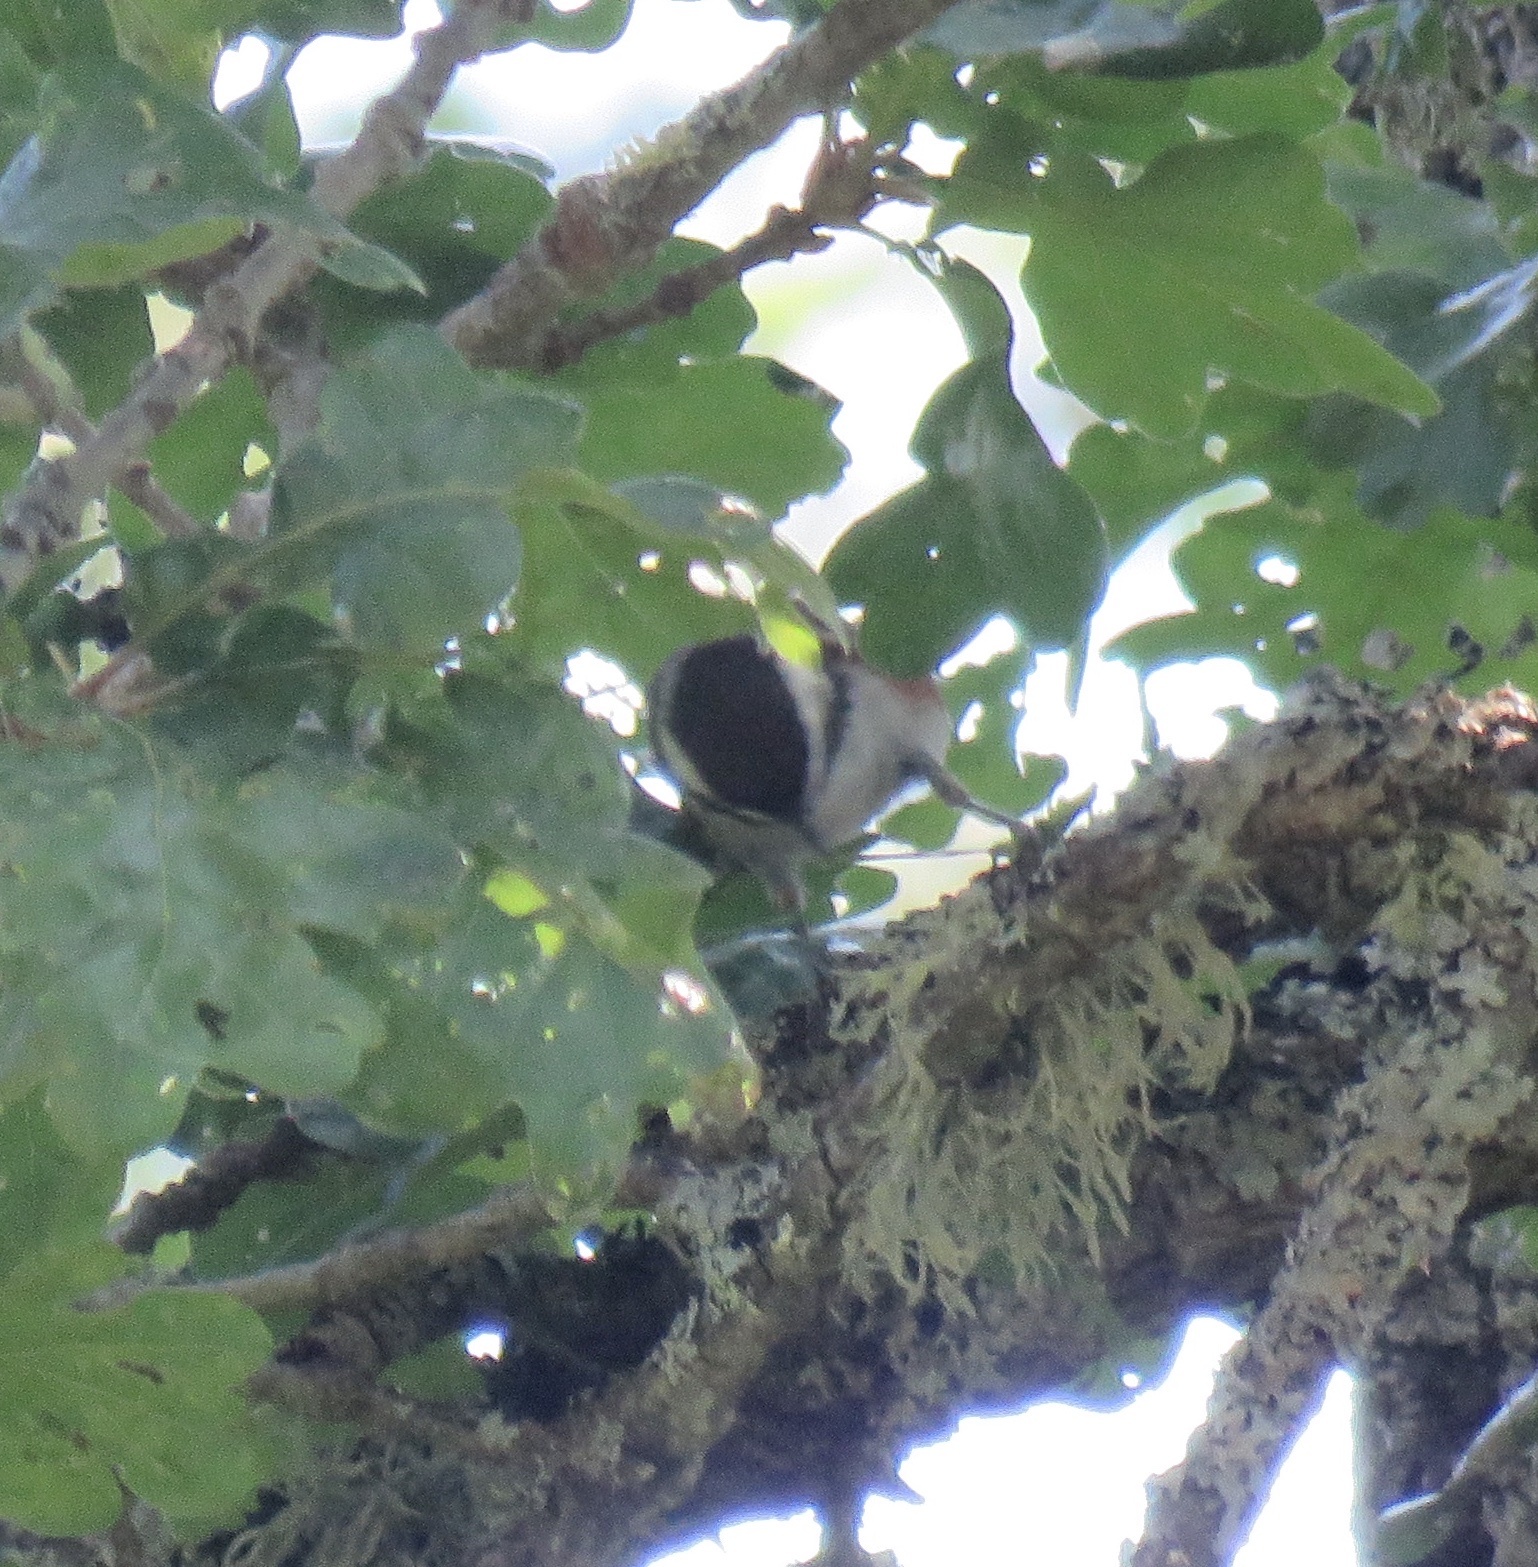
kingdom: Animalia
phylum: Chordata
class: Aves
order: Passeriformes
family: Paridae
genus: Poecile
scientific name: Poecile rufescens
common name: Chestnut-backed chickadee
